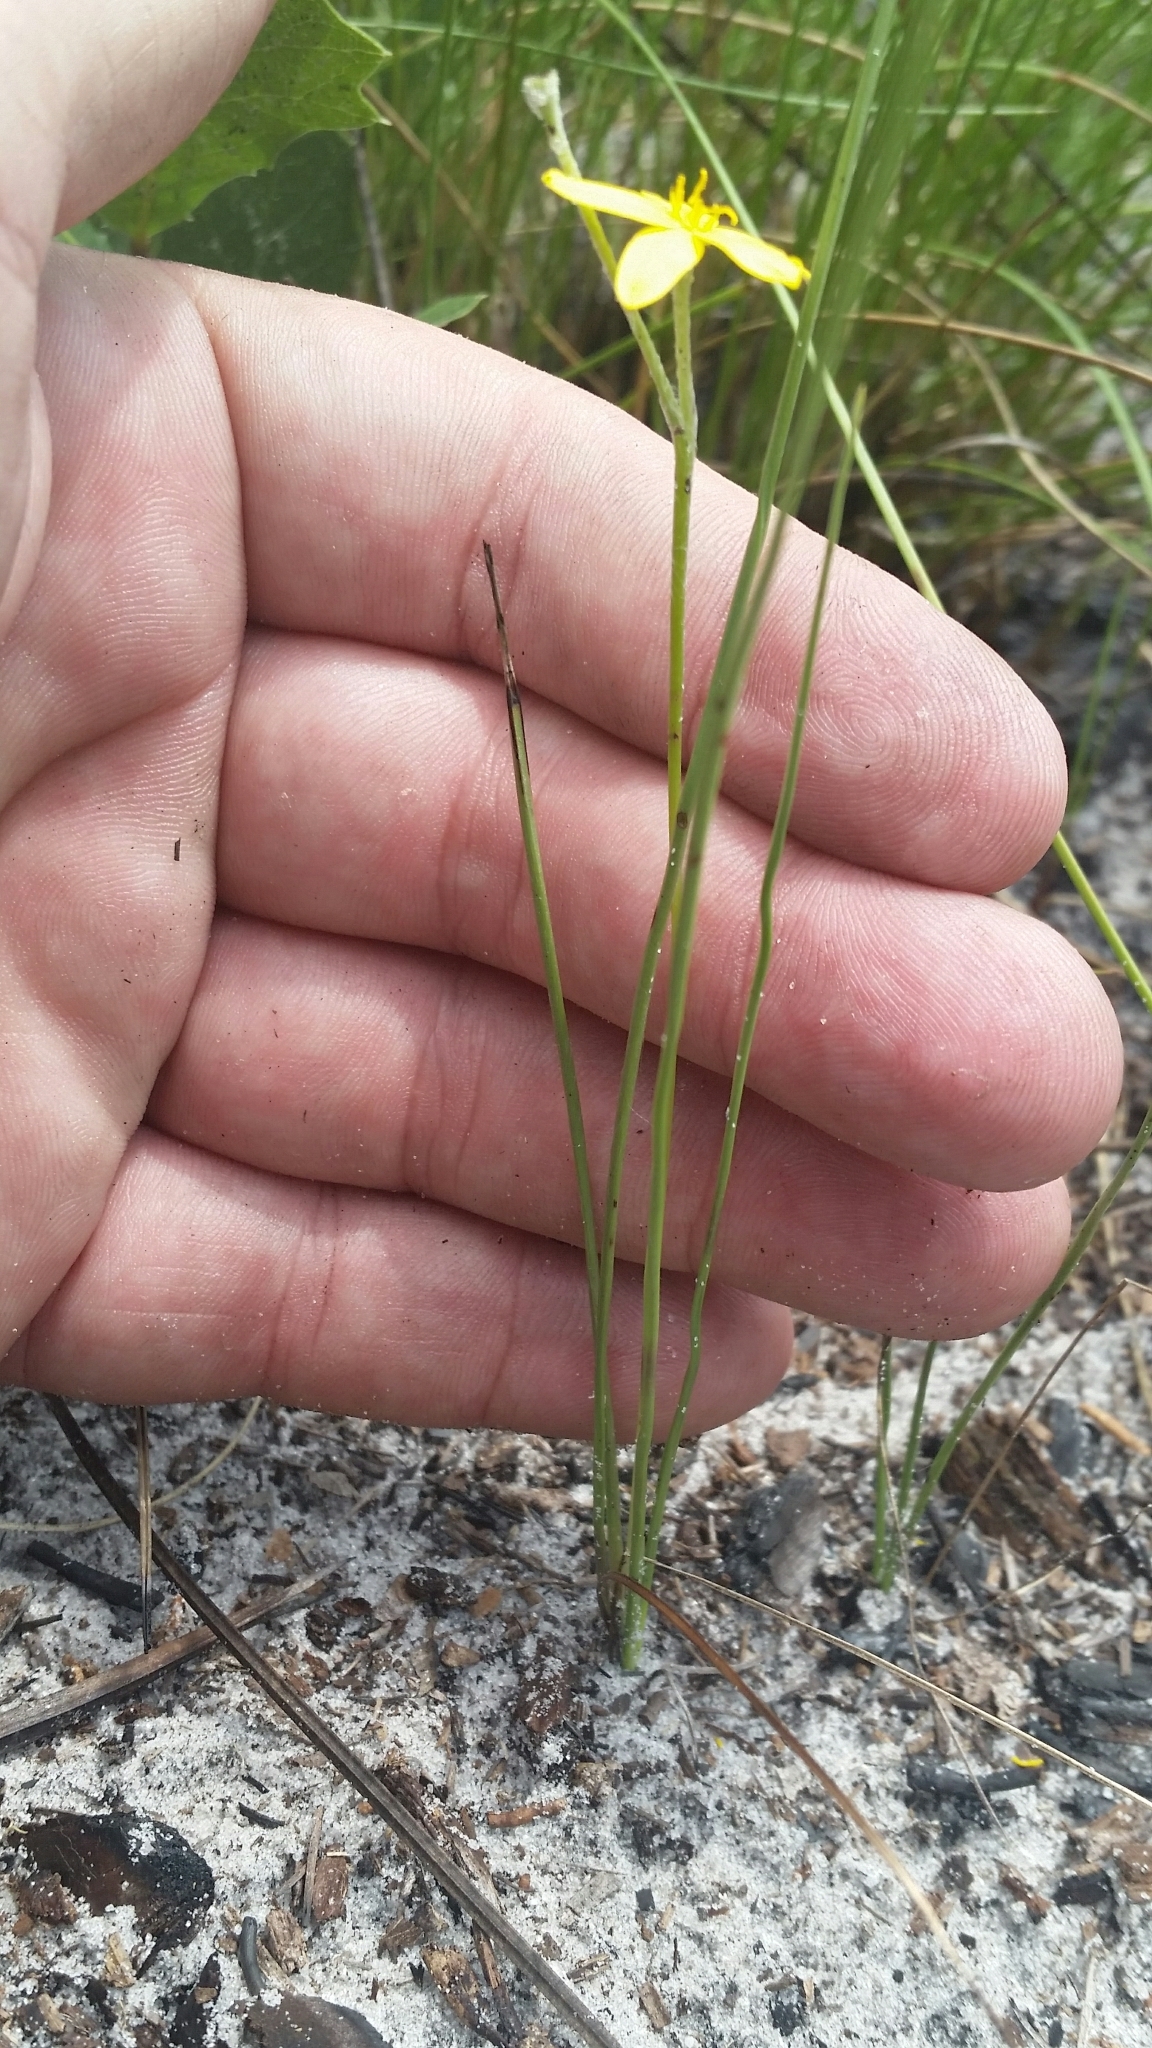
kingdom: Plantae
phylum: Tracheophyta
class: Liliopsida
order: Asparagales
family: Hypoxidaceae
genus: Hypoxis
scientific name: Hypoxis juncea
